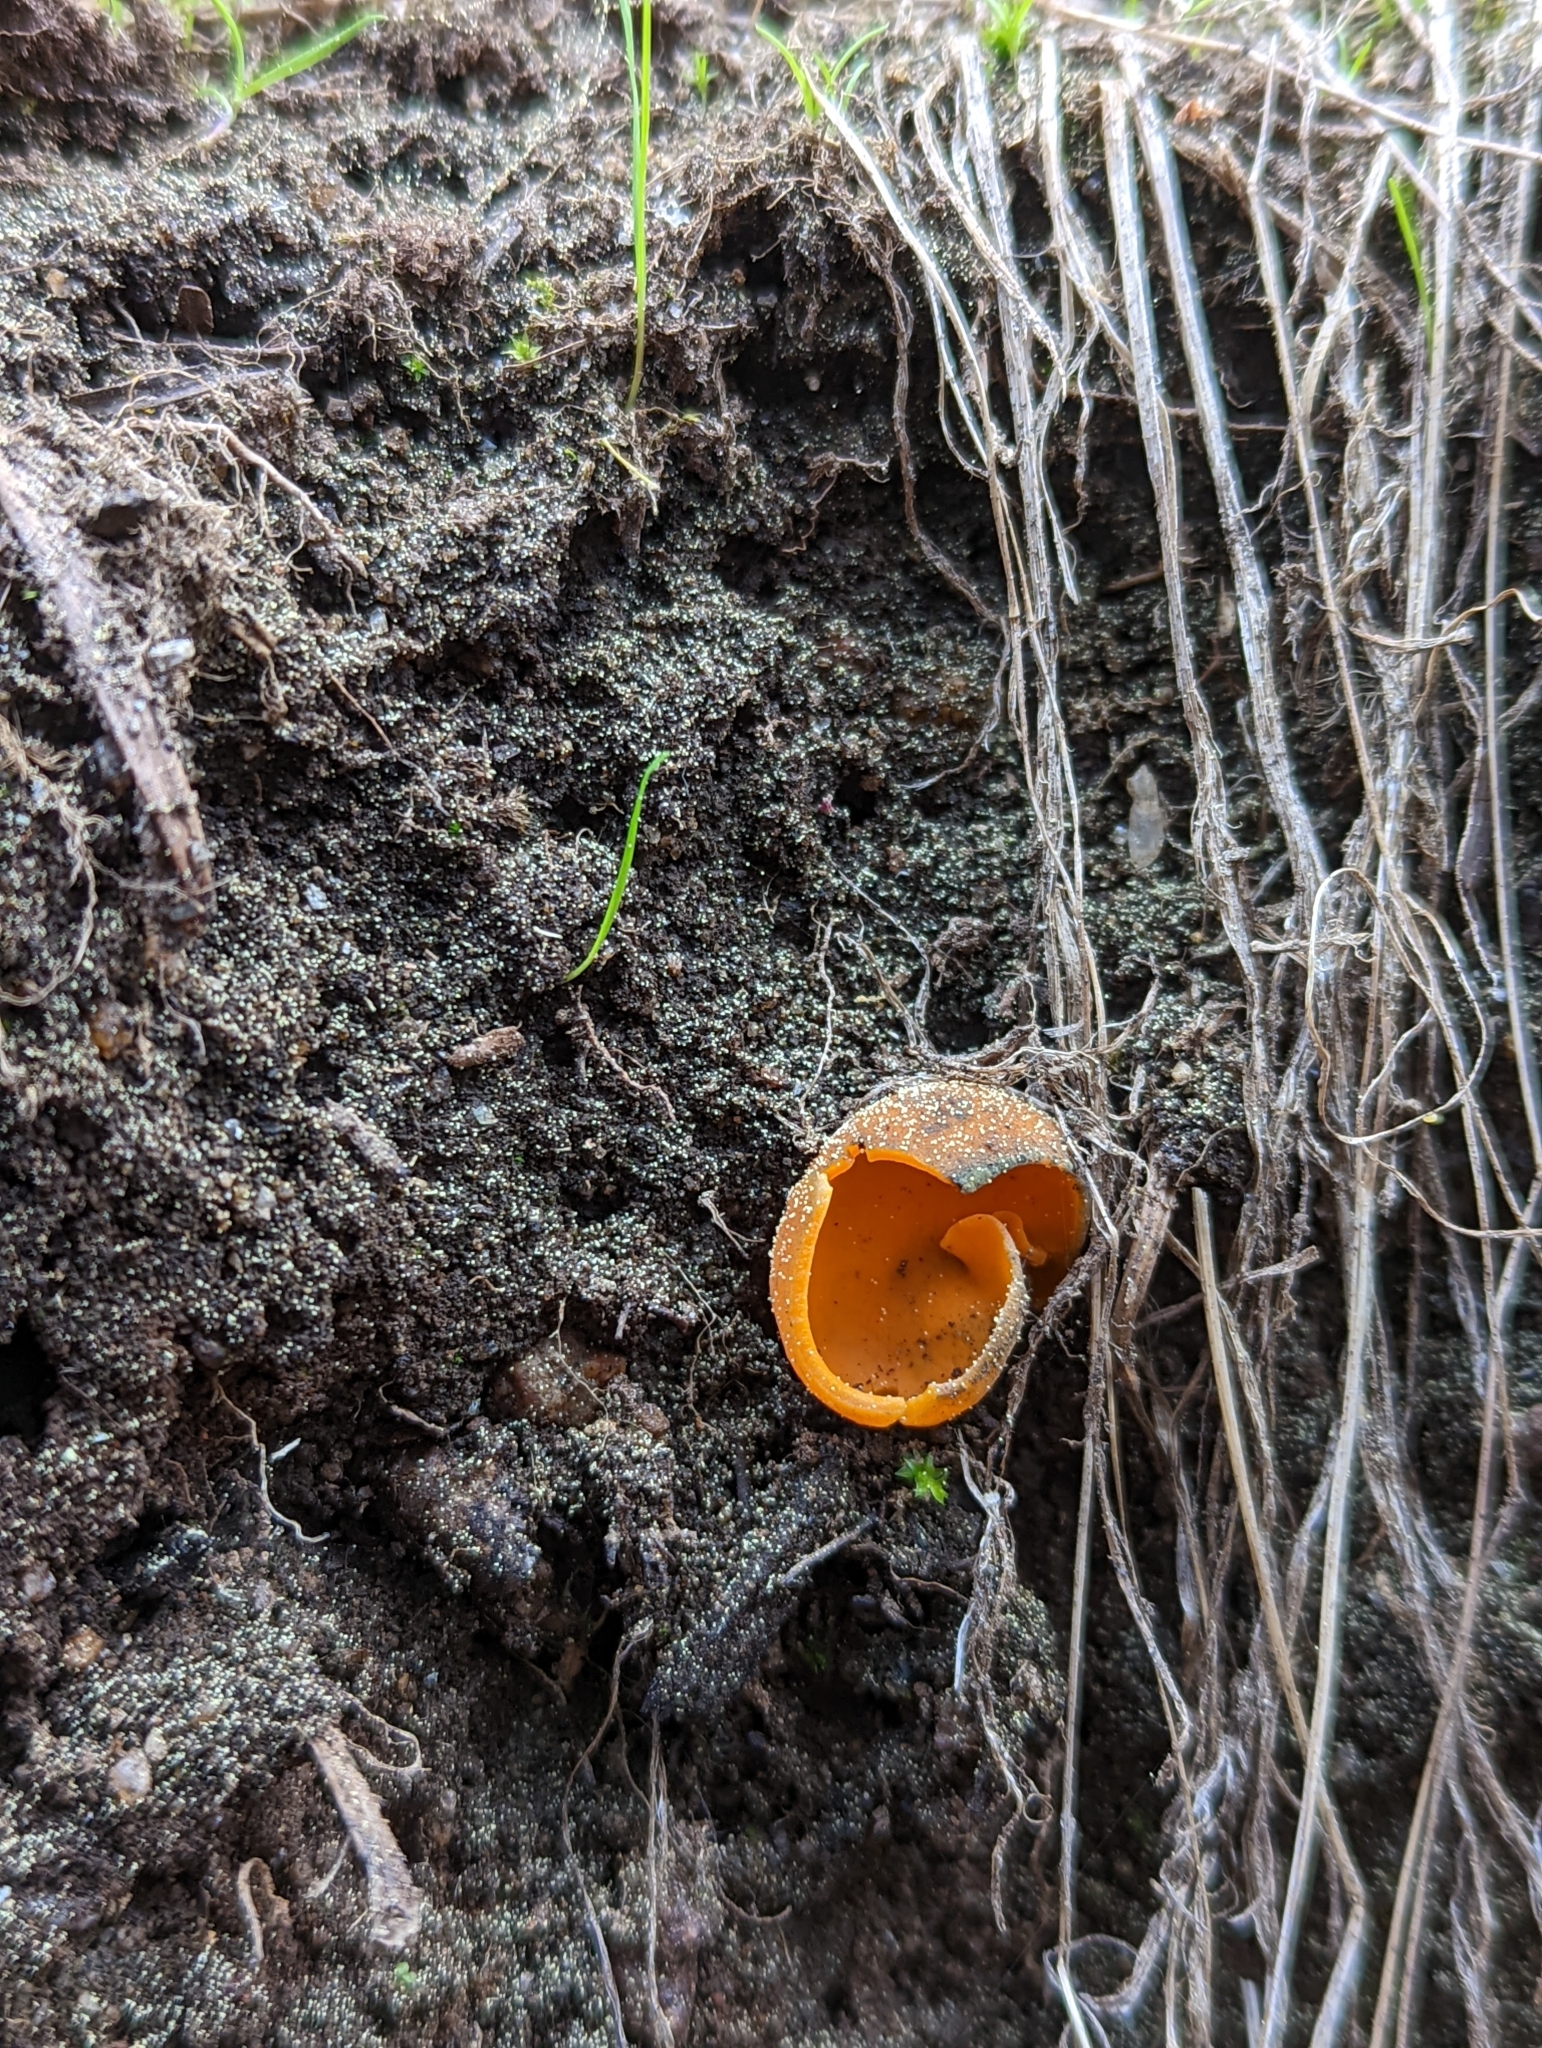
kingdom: Fungi
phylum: Ascomycota
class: Pezizomycetes
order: Pezizales
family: Caloscyphaceae
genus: Caloscypha
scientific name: Caloscypha fulgens
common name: Golden cup
